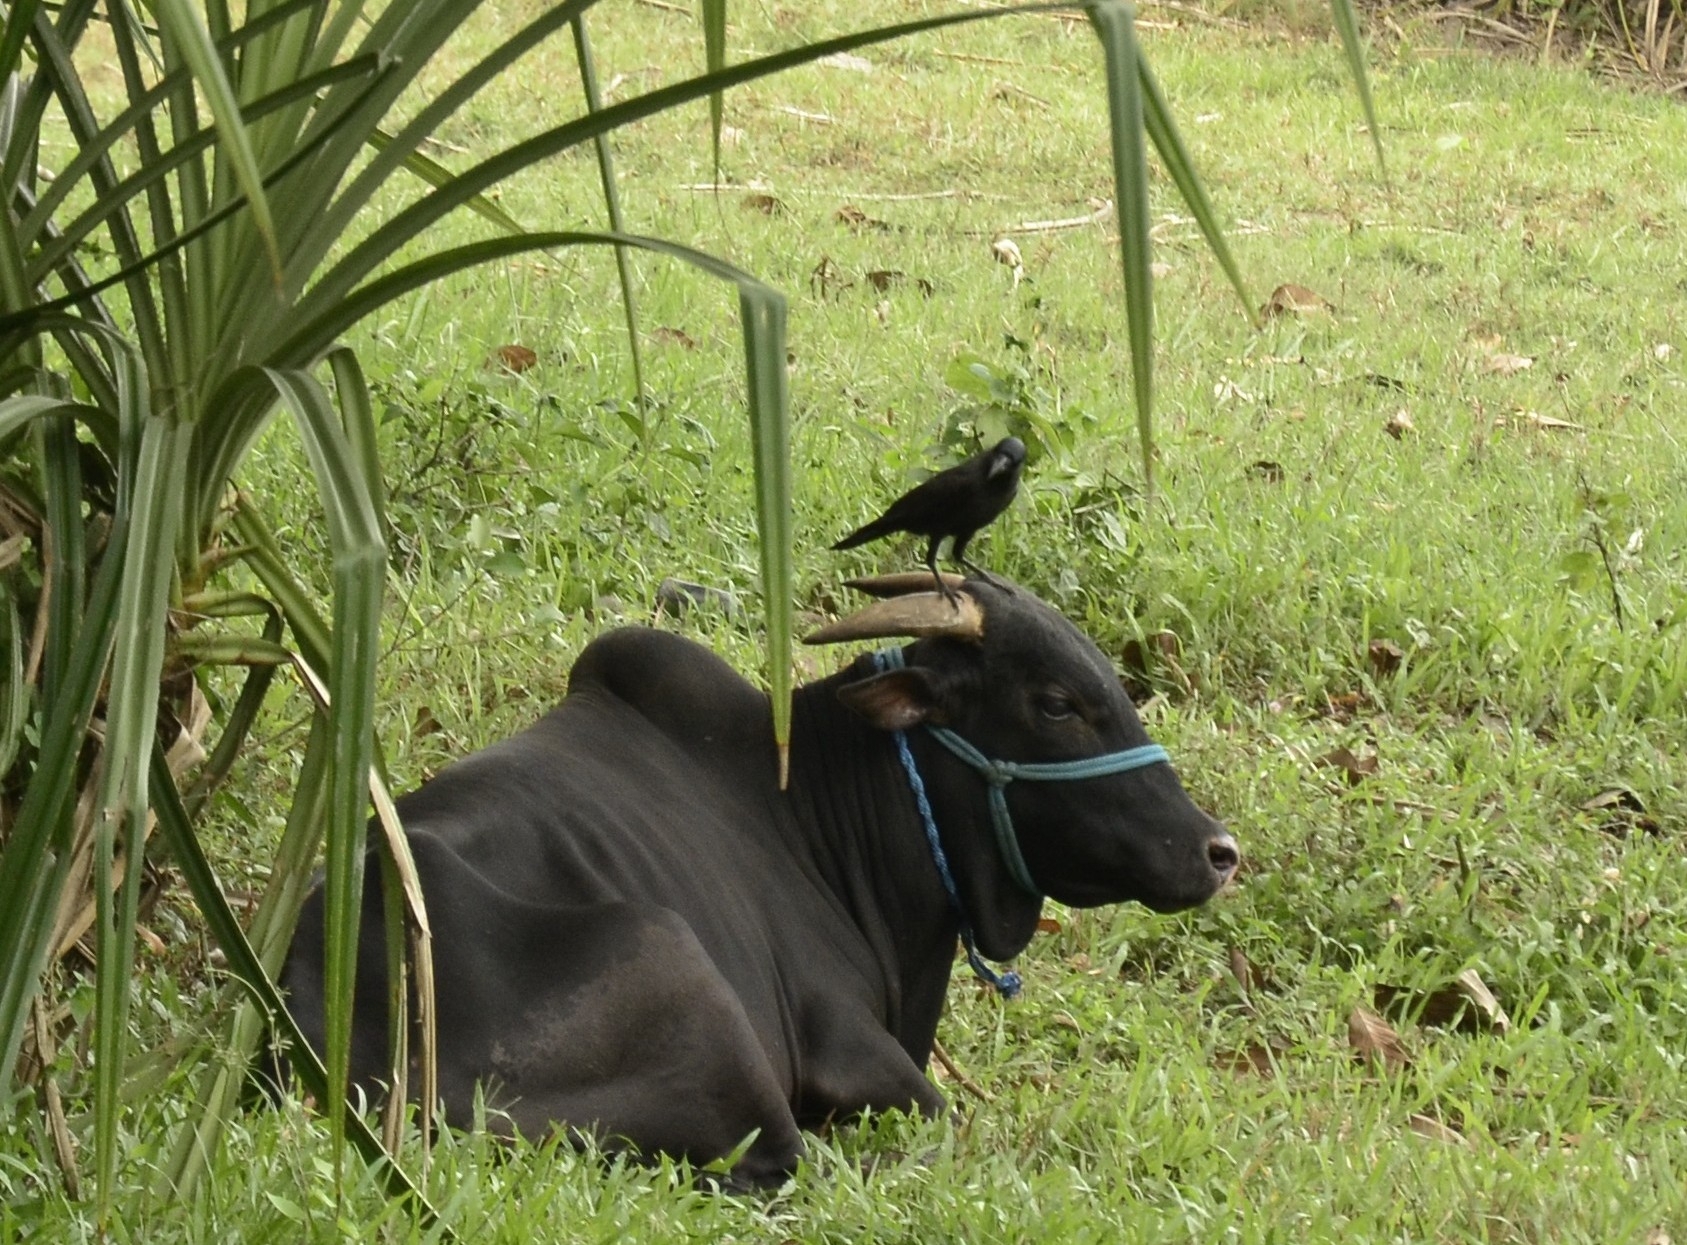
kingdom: Animalia
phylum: Chordata
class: Aves
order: Passeriformes
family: Corvidae
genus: Corvus
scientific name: Corvus splendens
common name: House crow
